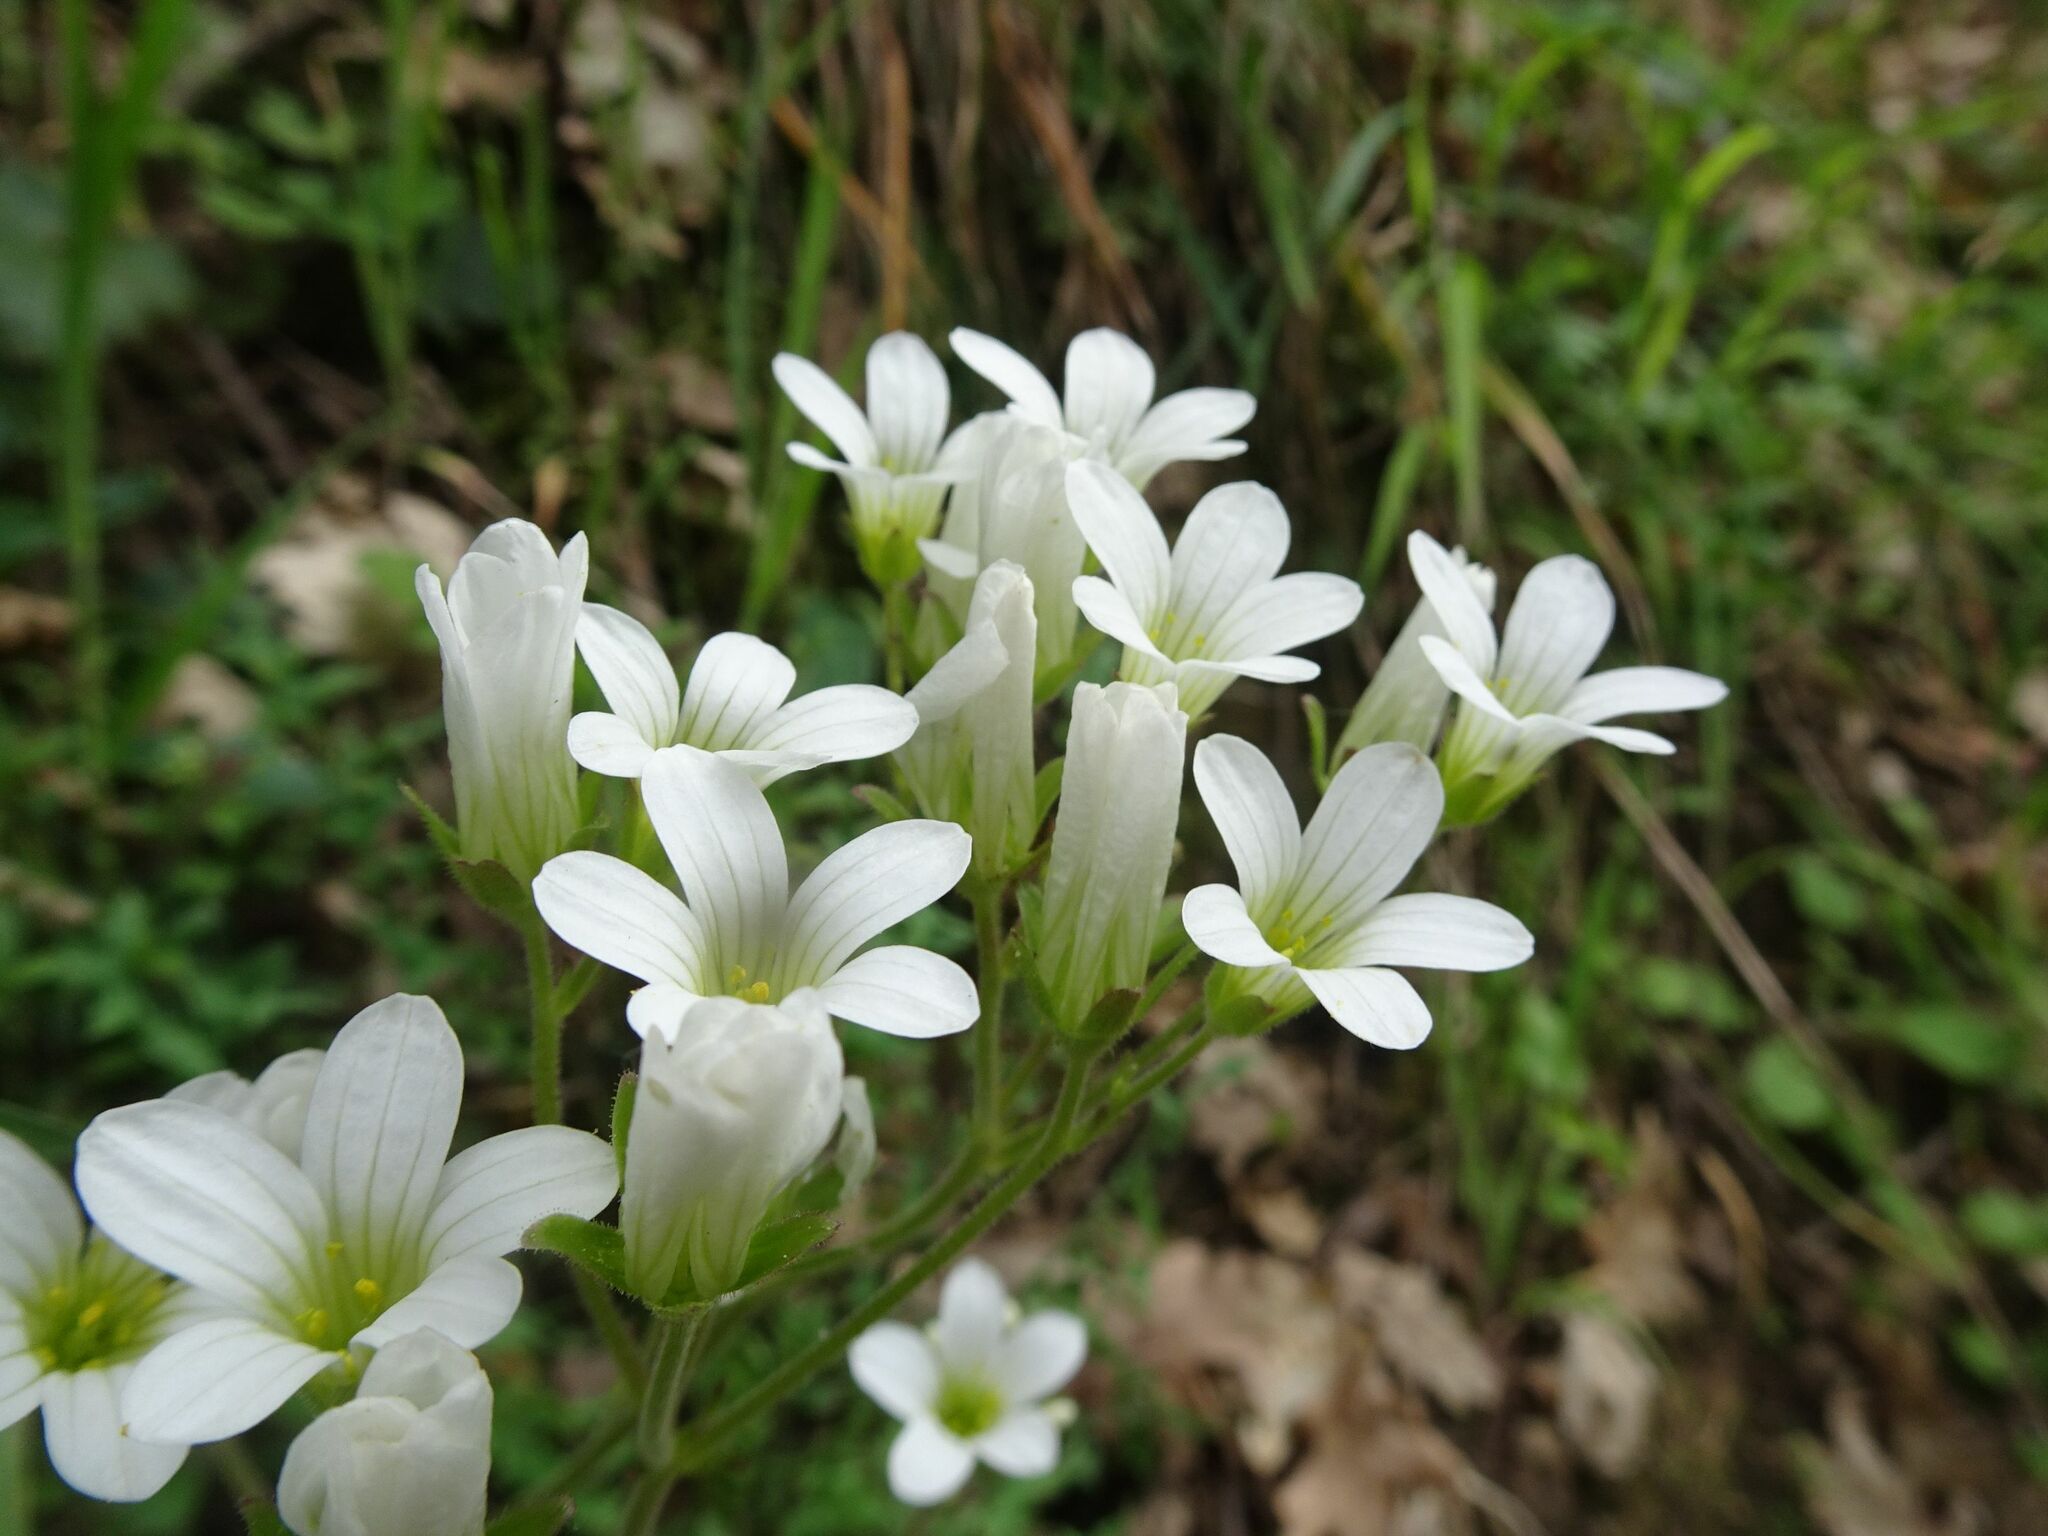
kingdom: Plantae
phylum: Tracheophyta
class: Magnoliopsida
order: Saxifragales
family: Saxifragaceae
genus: Saxifraga
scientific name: Saxifraga granulata
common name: Meadow saxifrage
